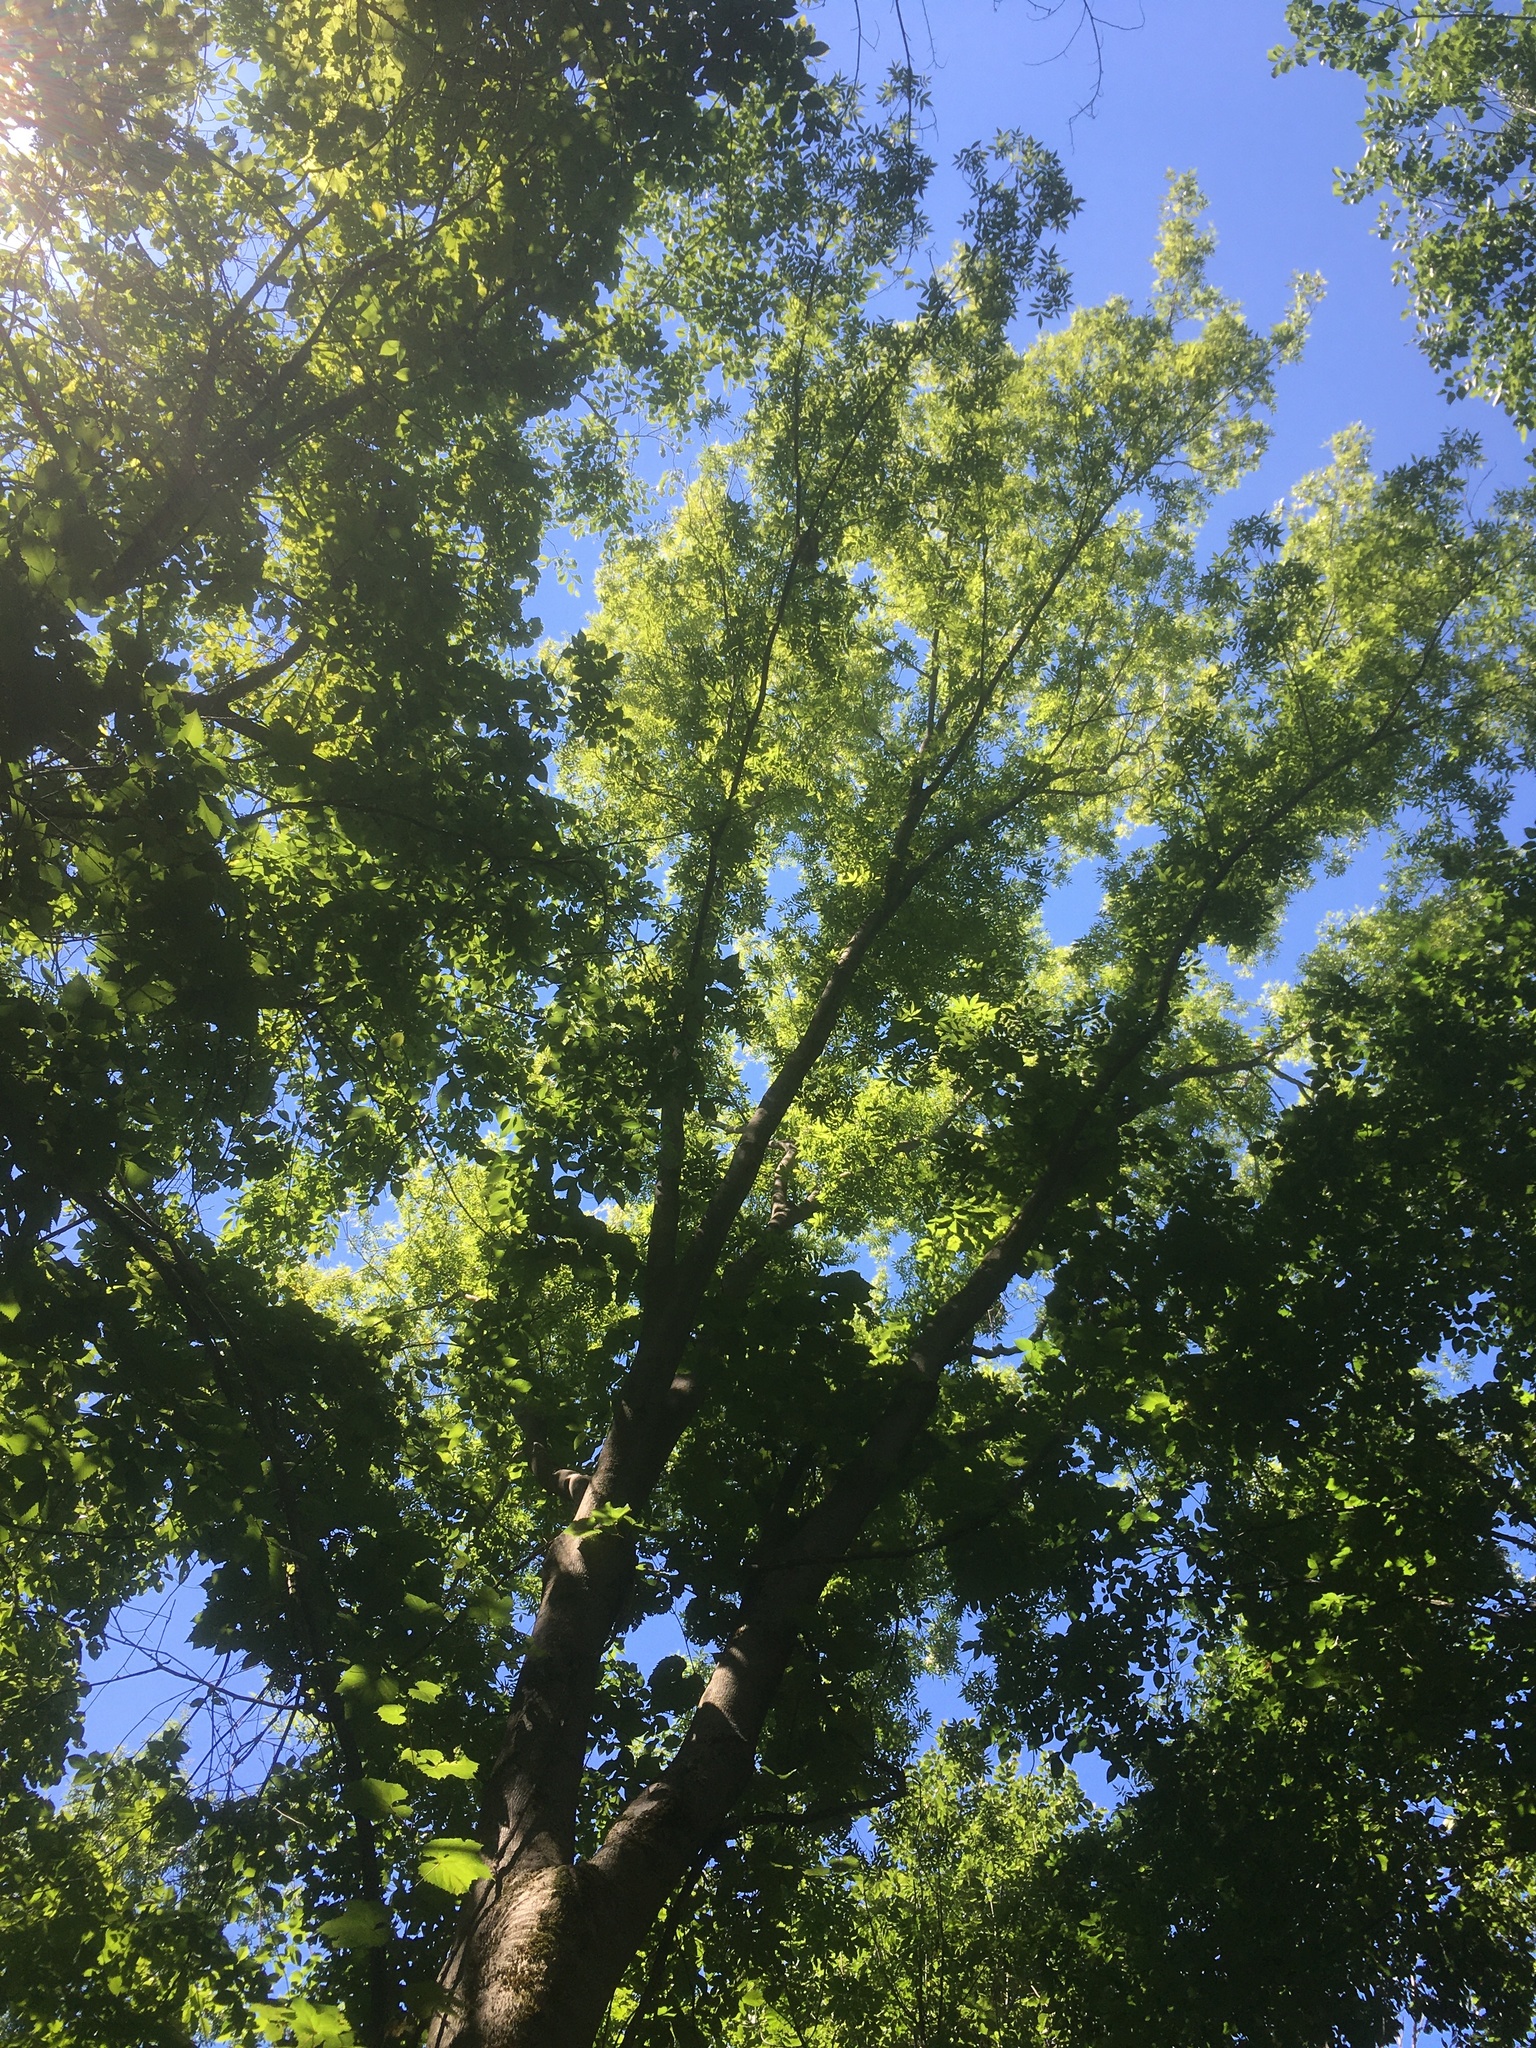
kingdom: Plantae
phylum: Tracheophyta
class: Magnoliopsida
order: Fagales
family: Juglandaceae
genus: Carya
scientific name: Carya cordiformis
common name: Bitternut hickory
